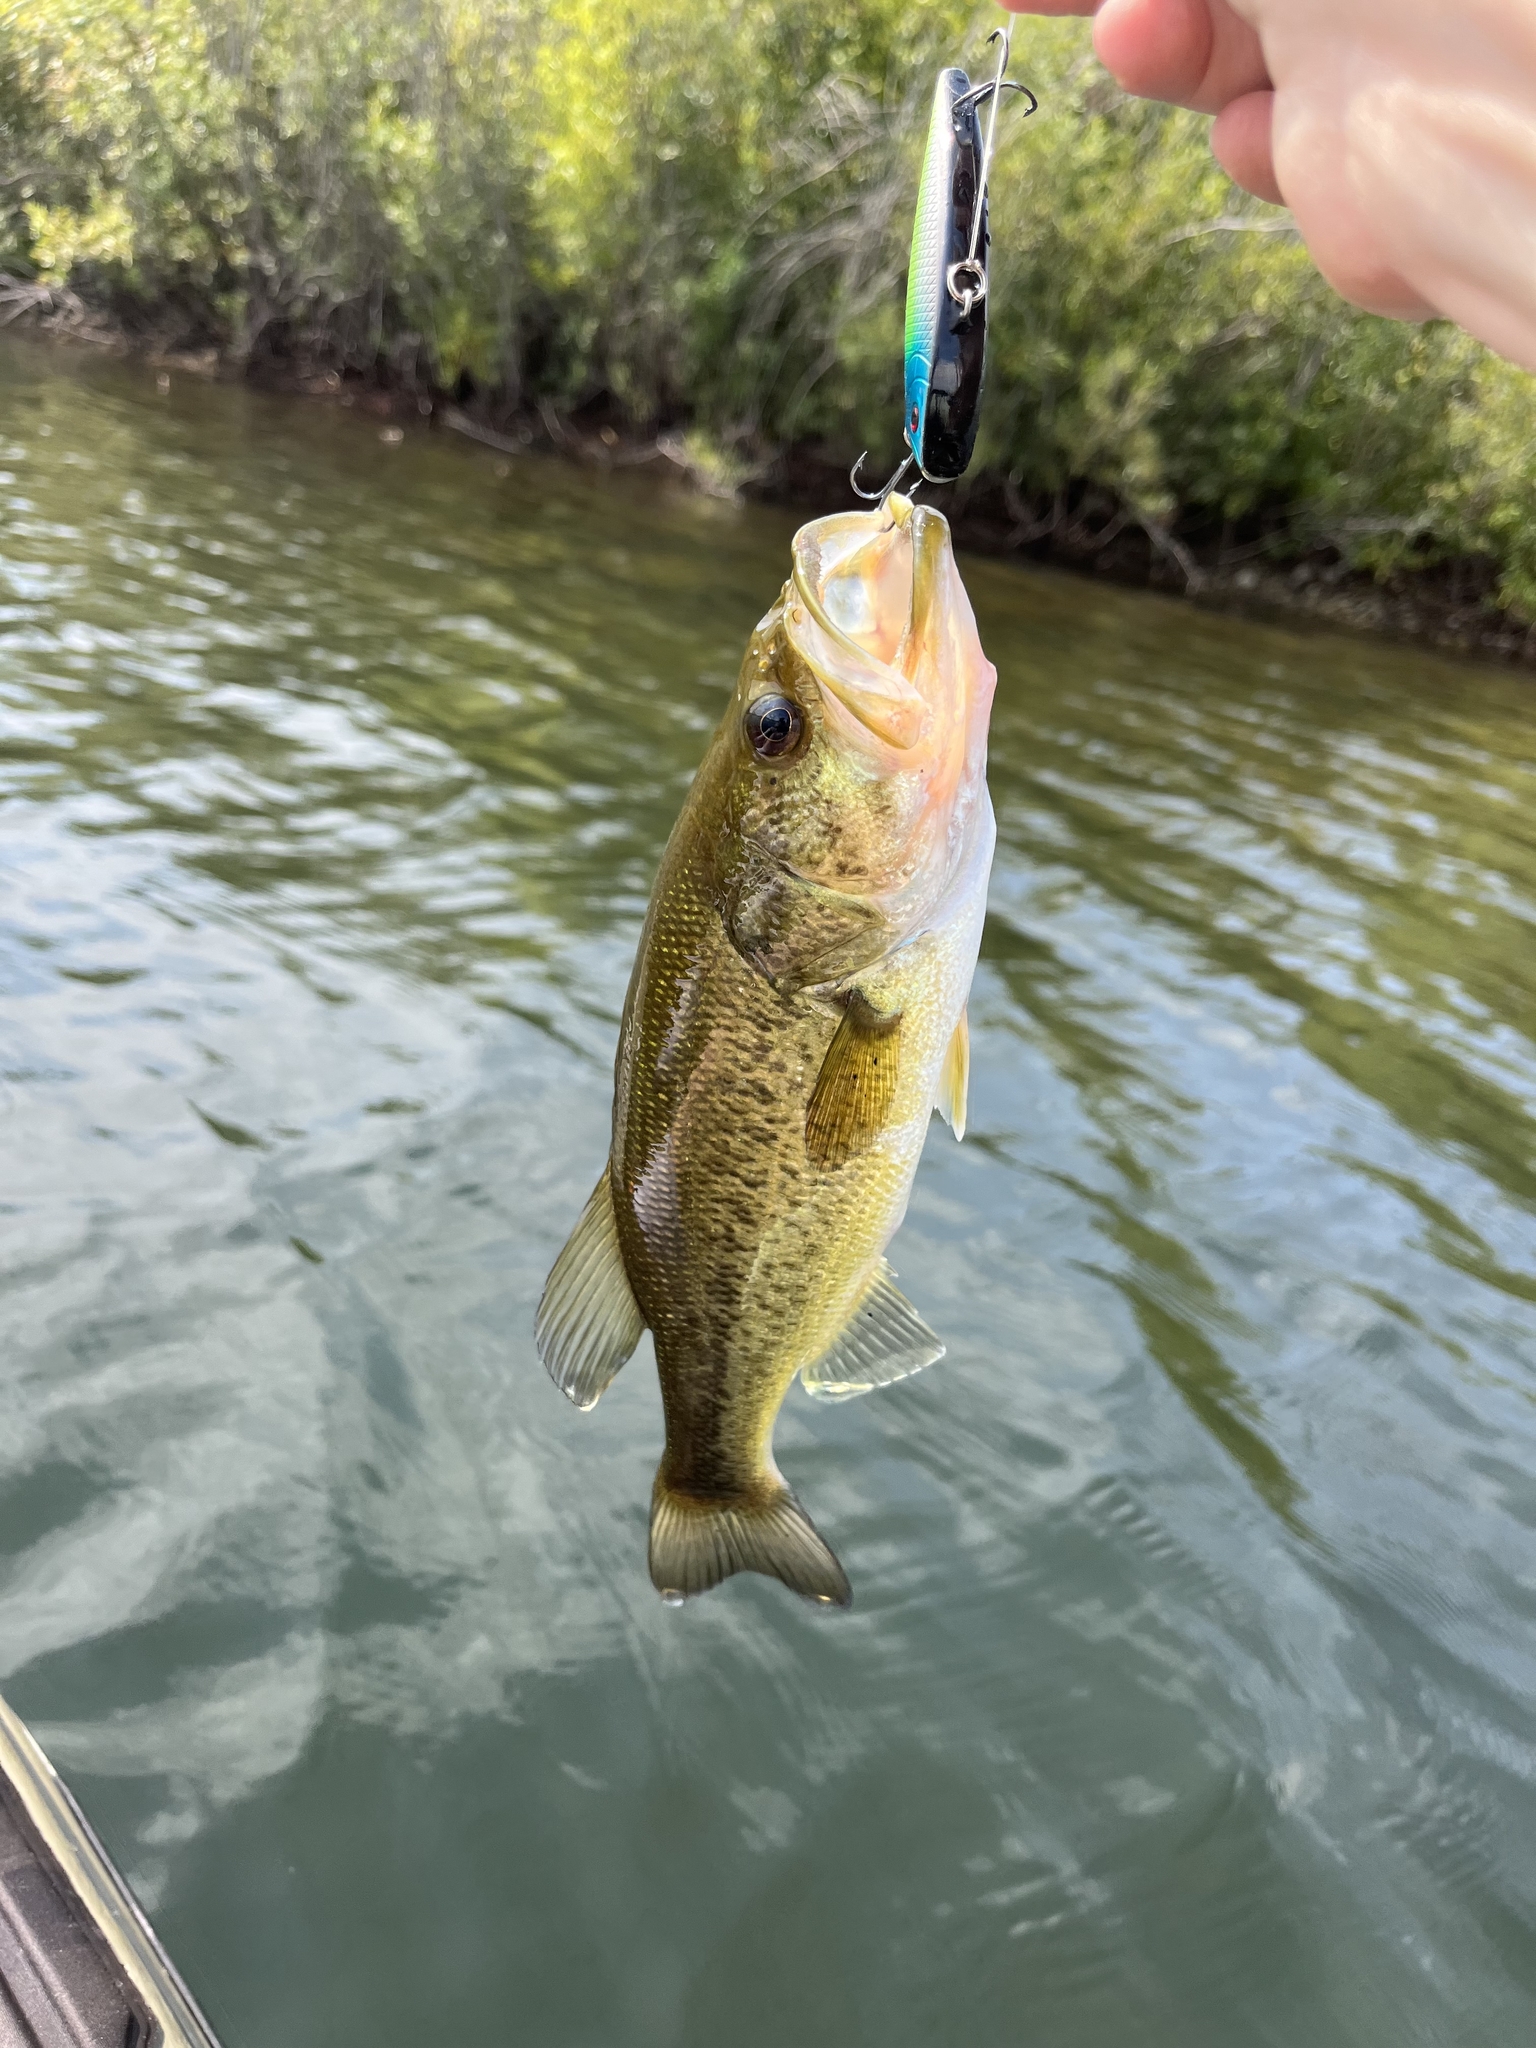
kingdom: Animalia
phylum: Chordata
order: Perciformes
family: Centrarchidae
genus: Micropterus
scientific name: Micropterus
